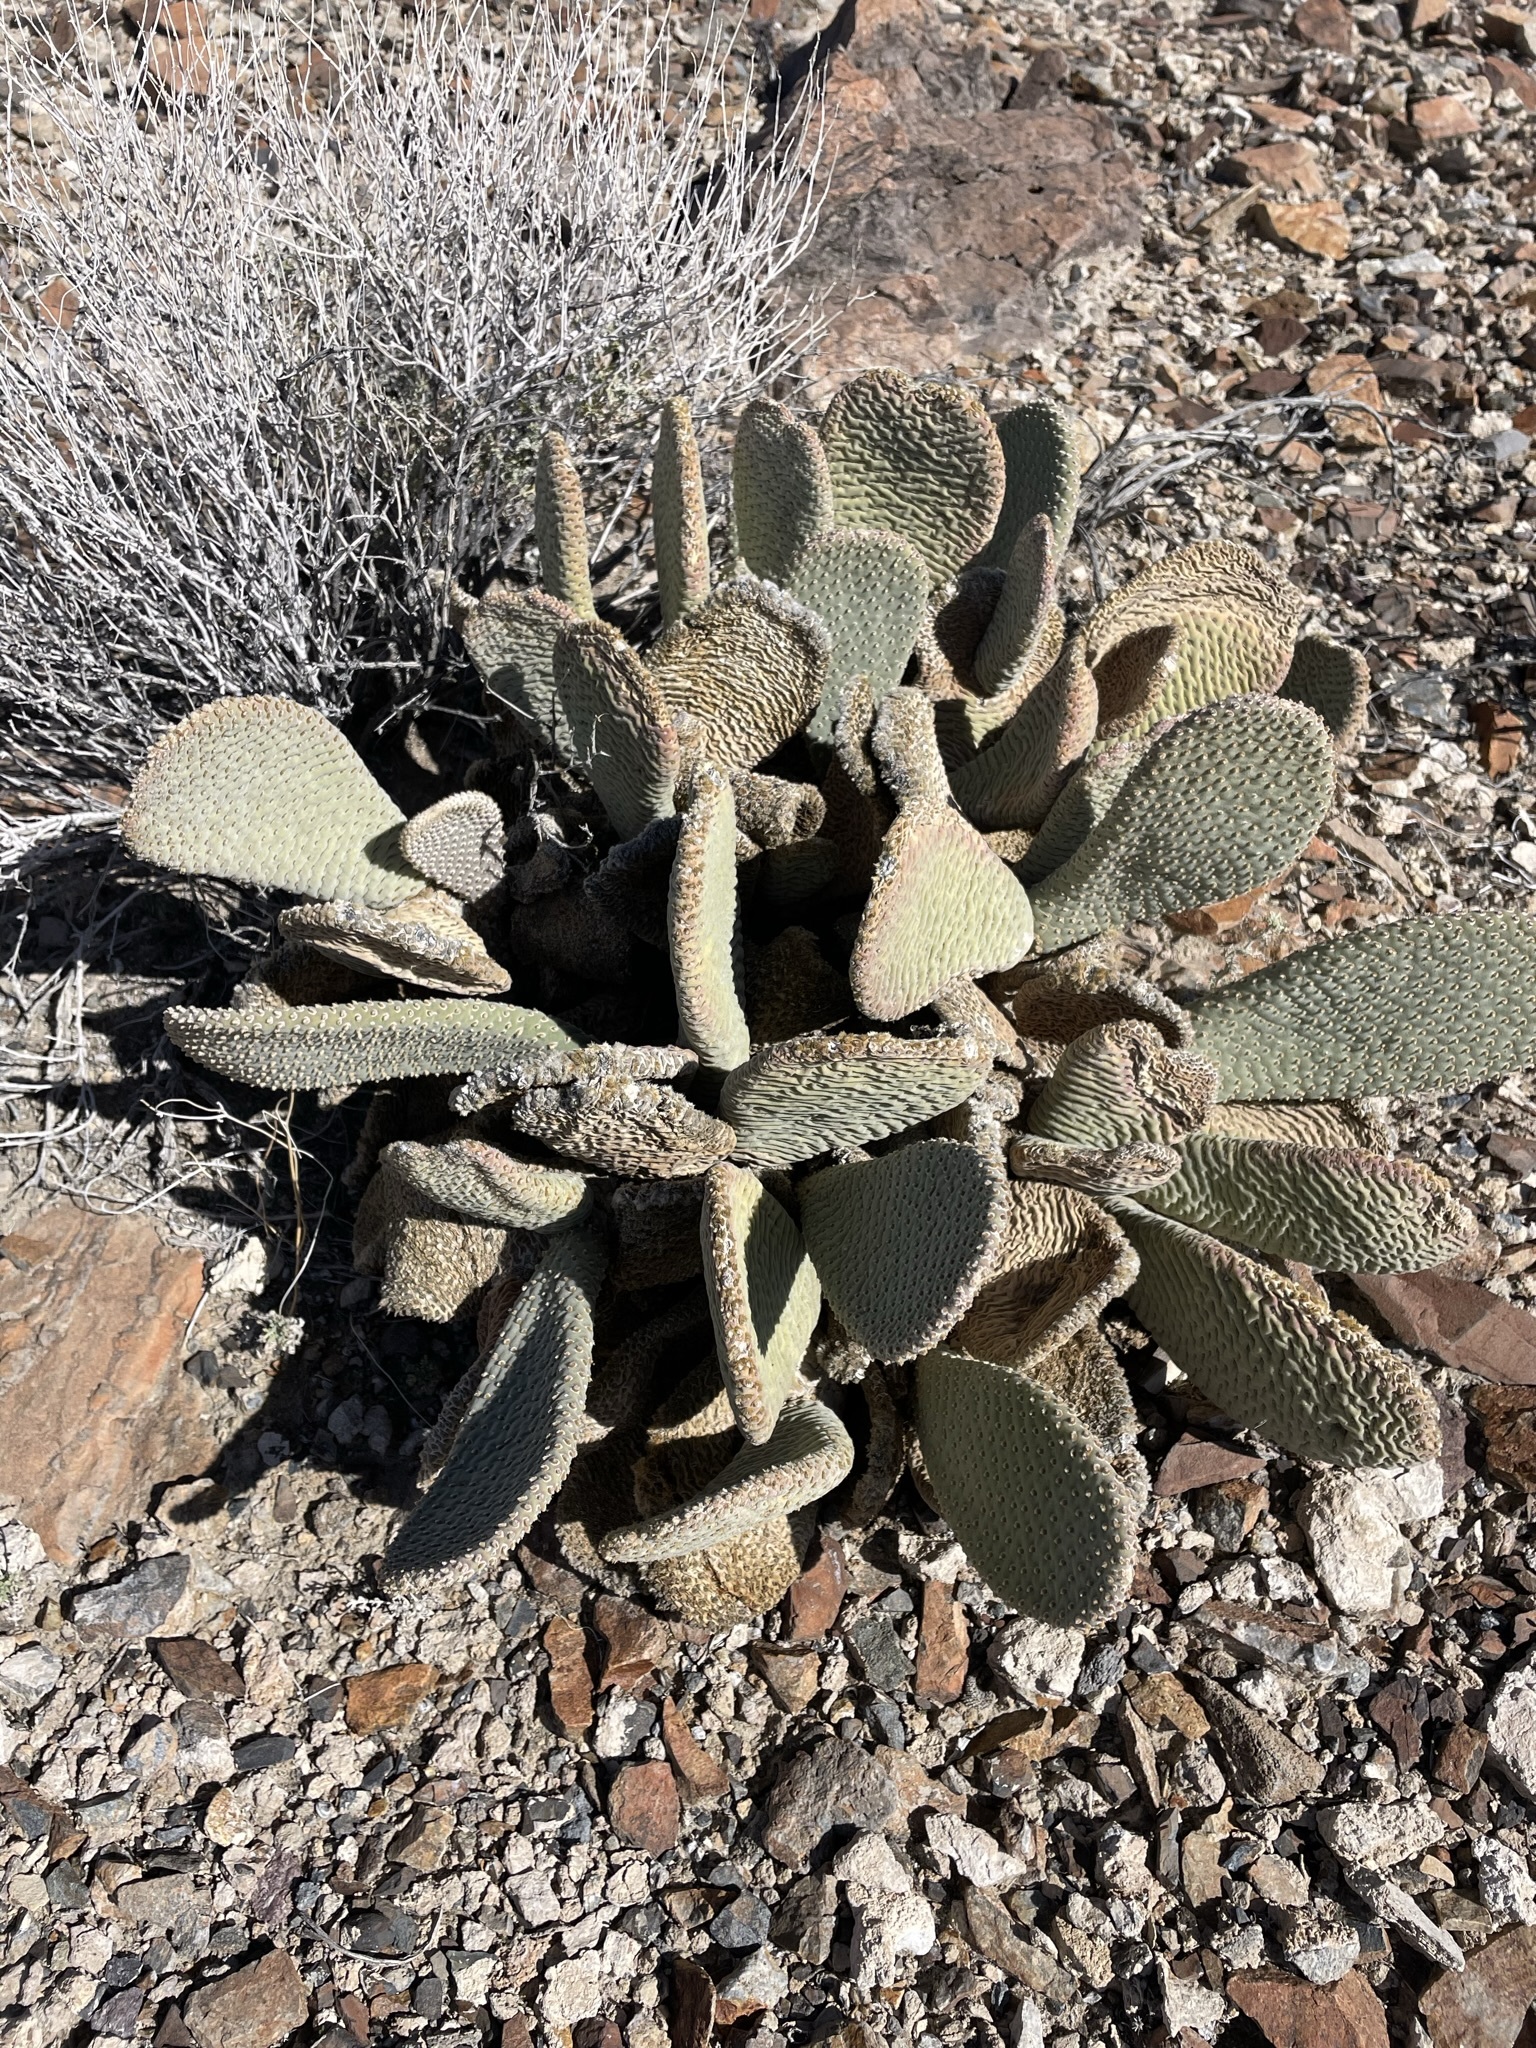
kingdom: Plantae
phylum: Tracheophyta
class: Magnoliopsida
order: Caryophyllales
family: Cactaceae
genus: Opuntia
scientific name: Opuntia basilaris
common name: Beavertail prickly-pear
